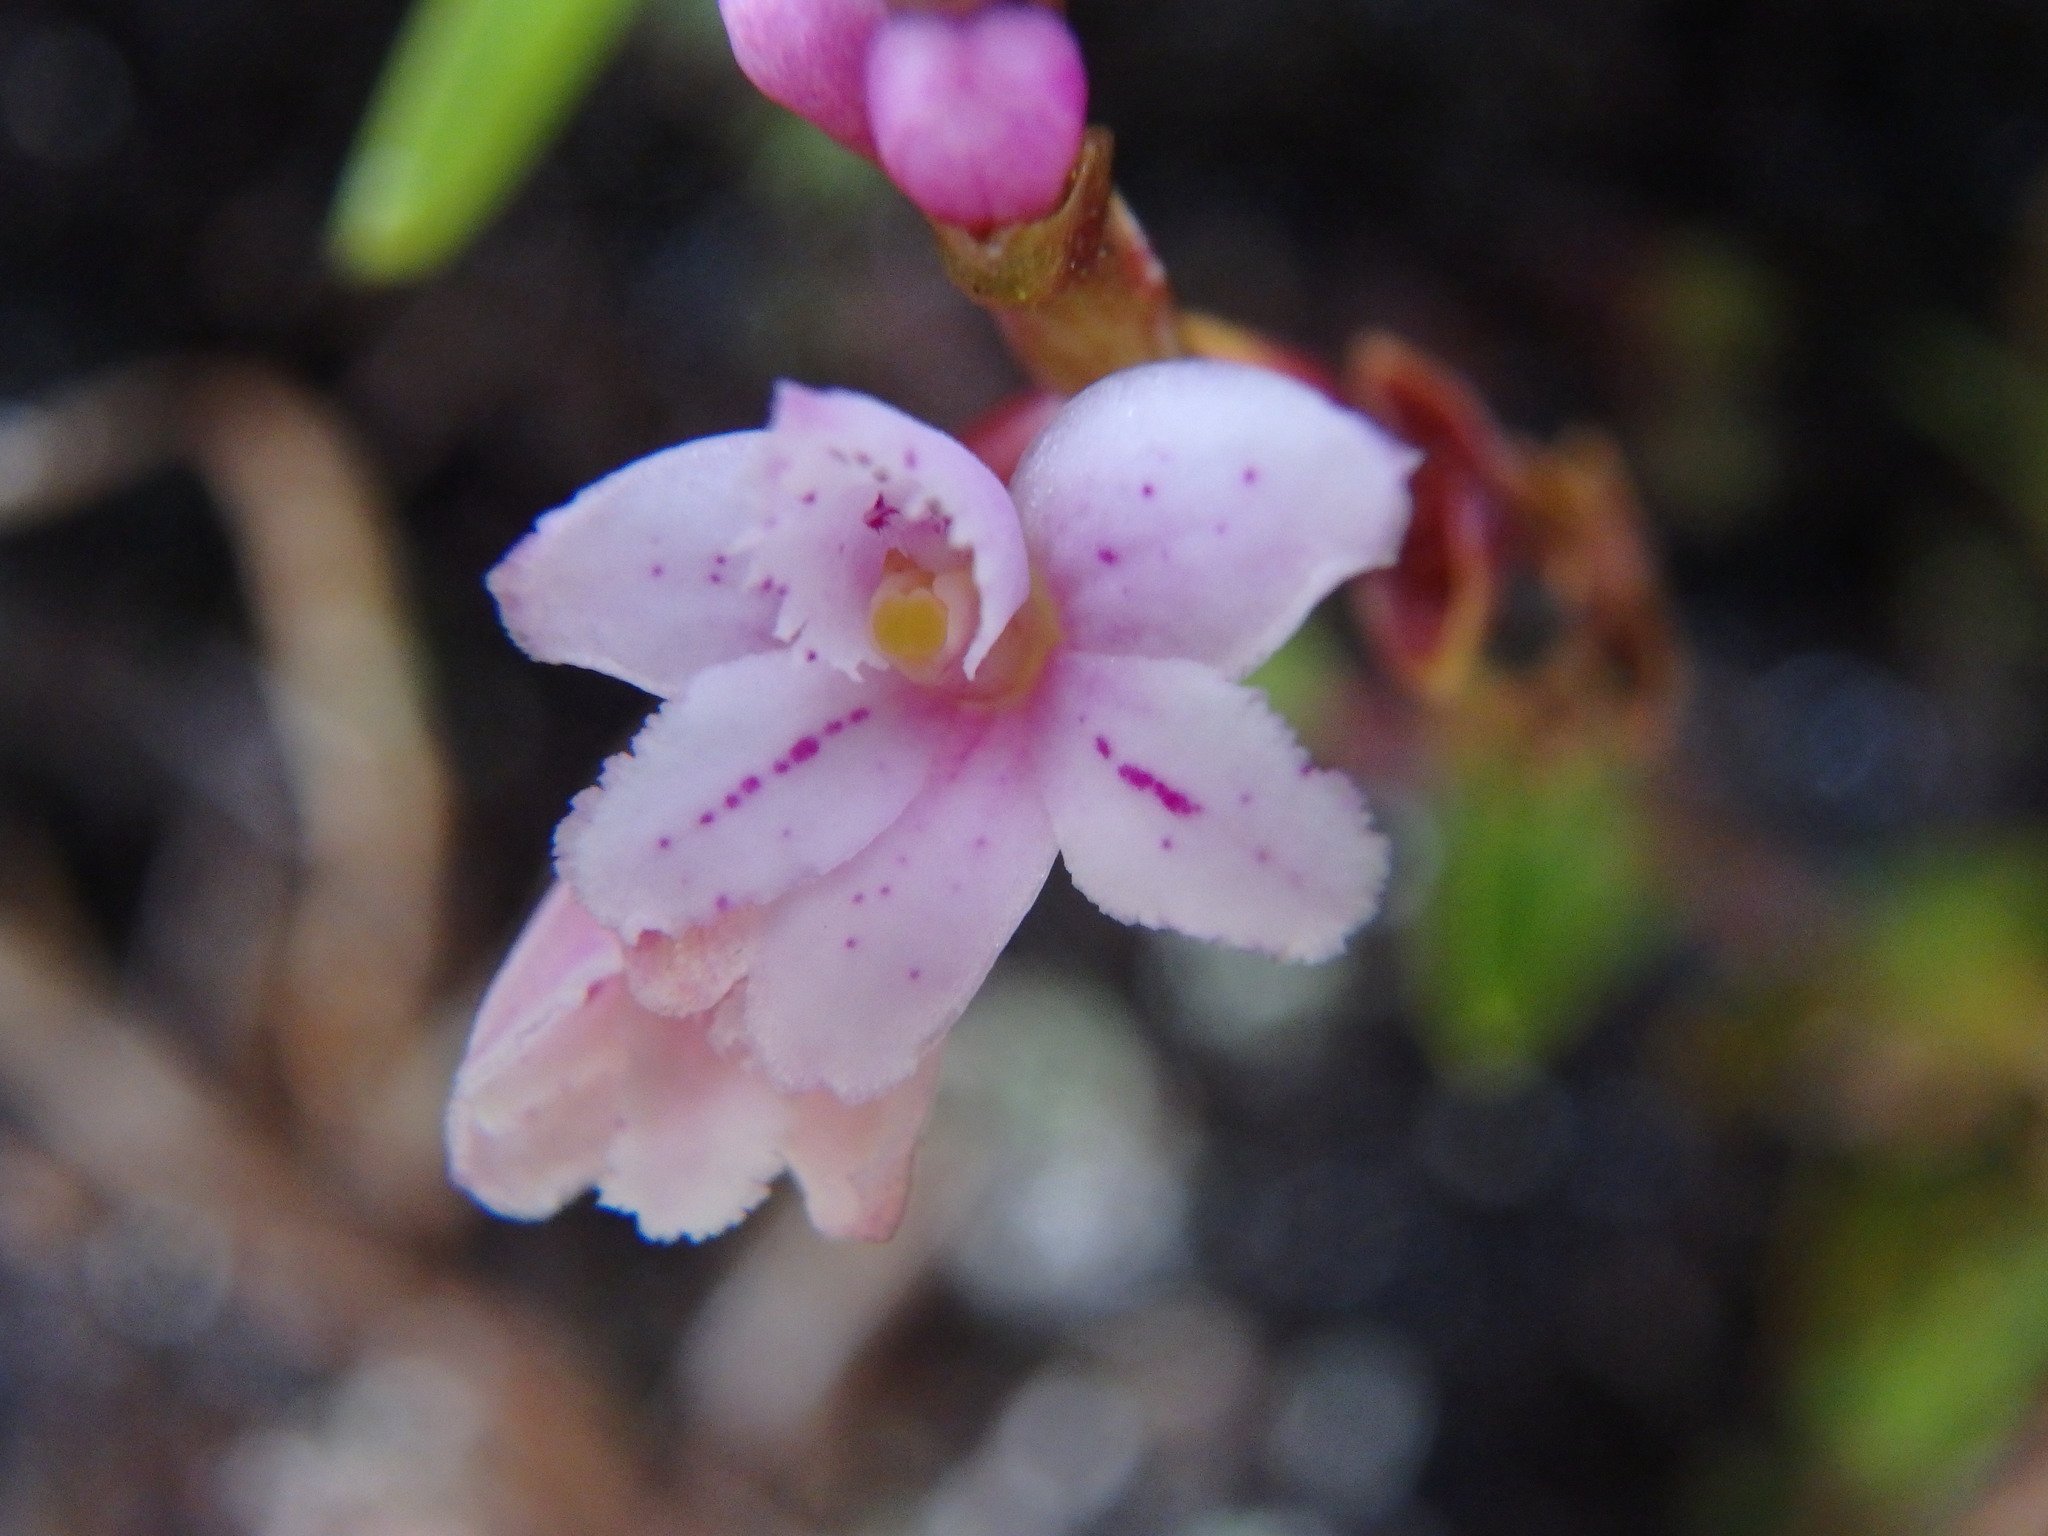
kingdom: Plantae
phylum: Tracheophyta
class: Liliopsida
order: Asparagales
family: Orchidaceae
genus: Epidendrum
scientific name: Epidendrum fimbriatum
